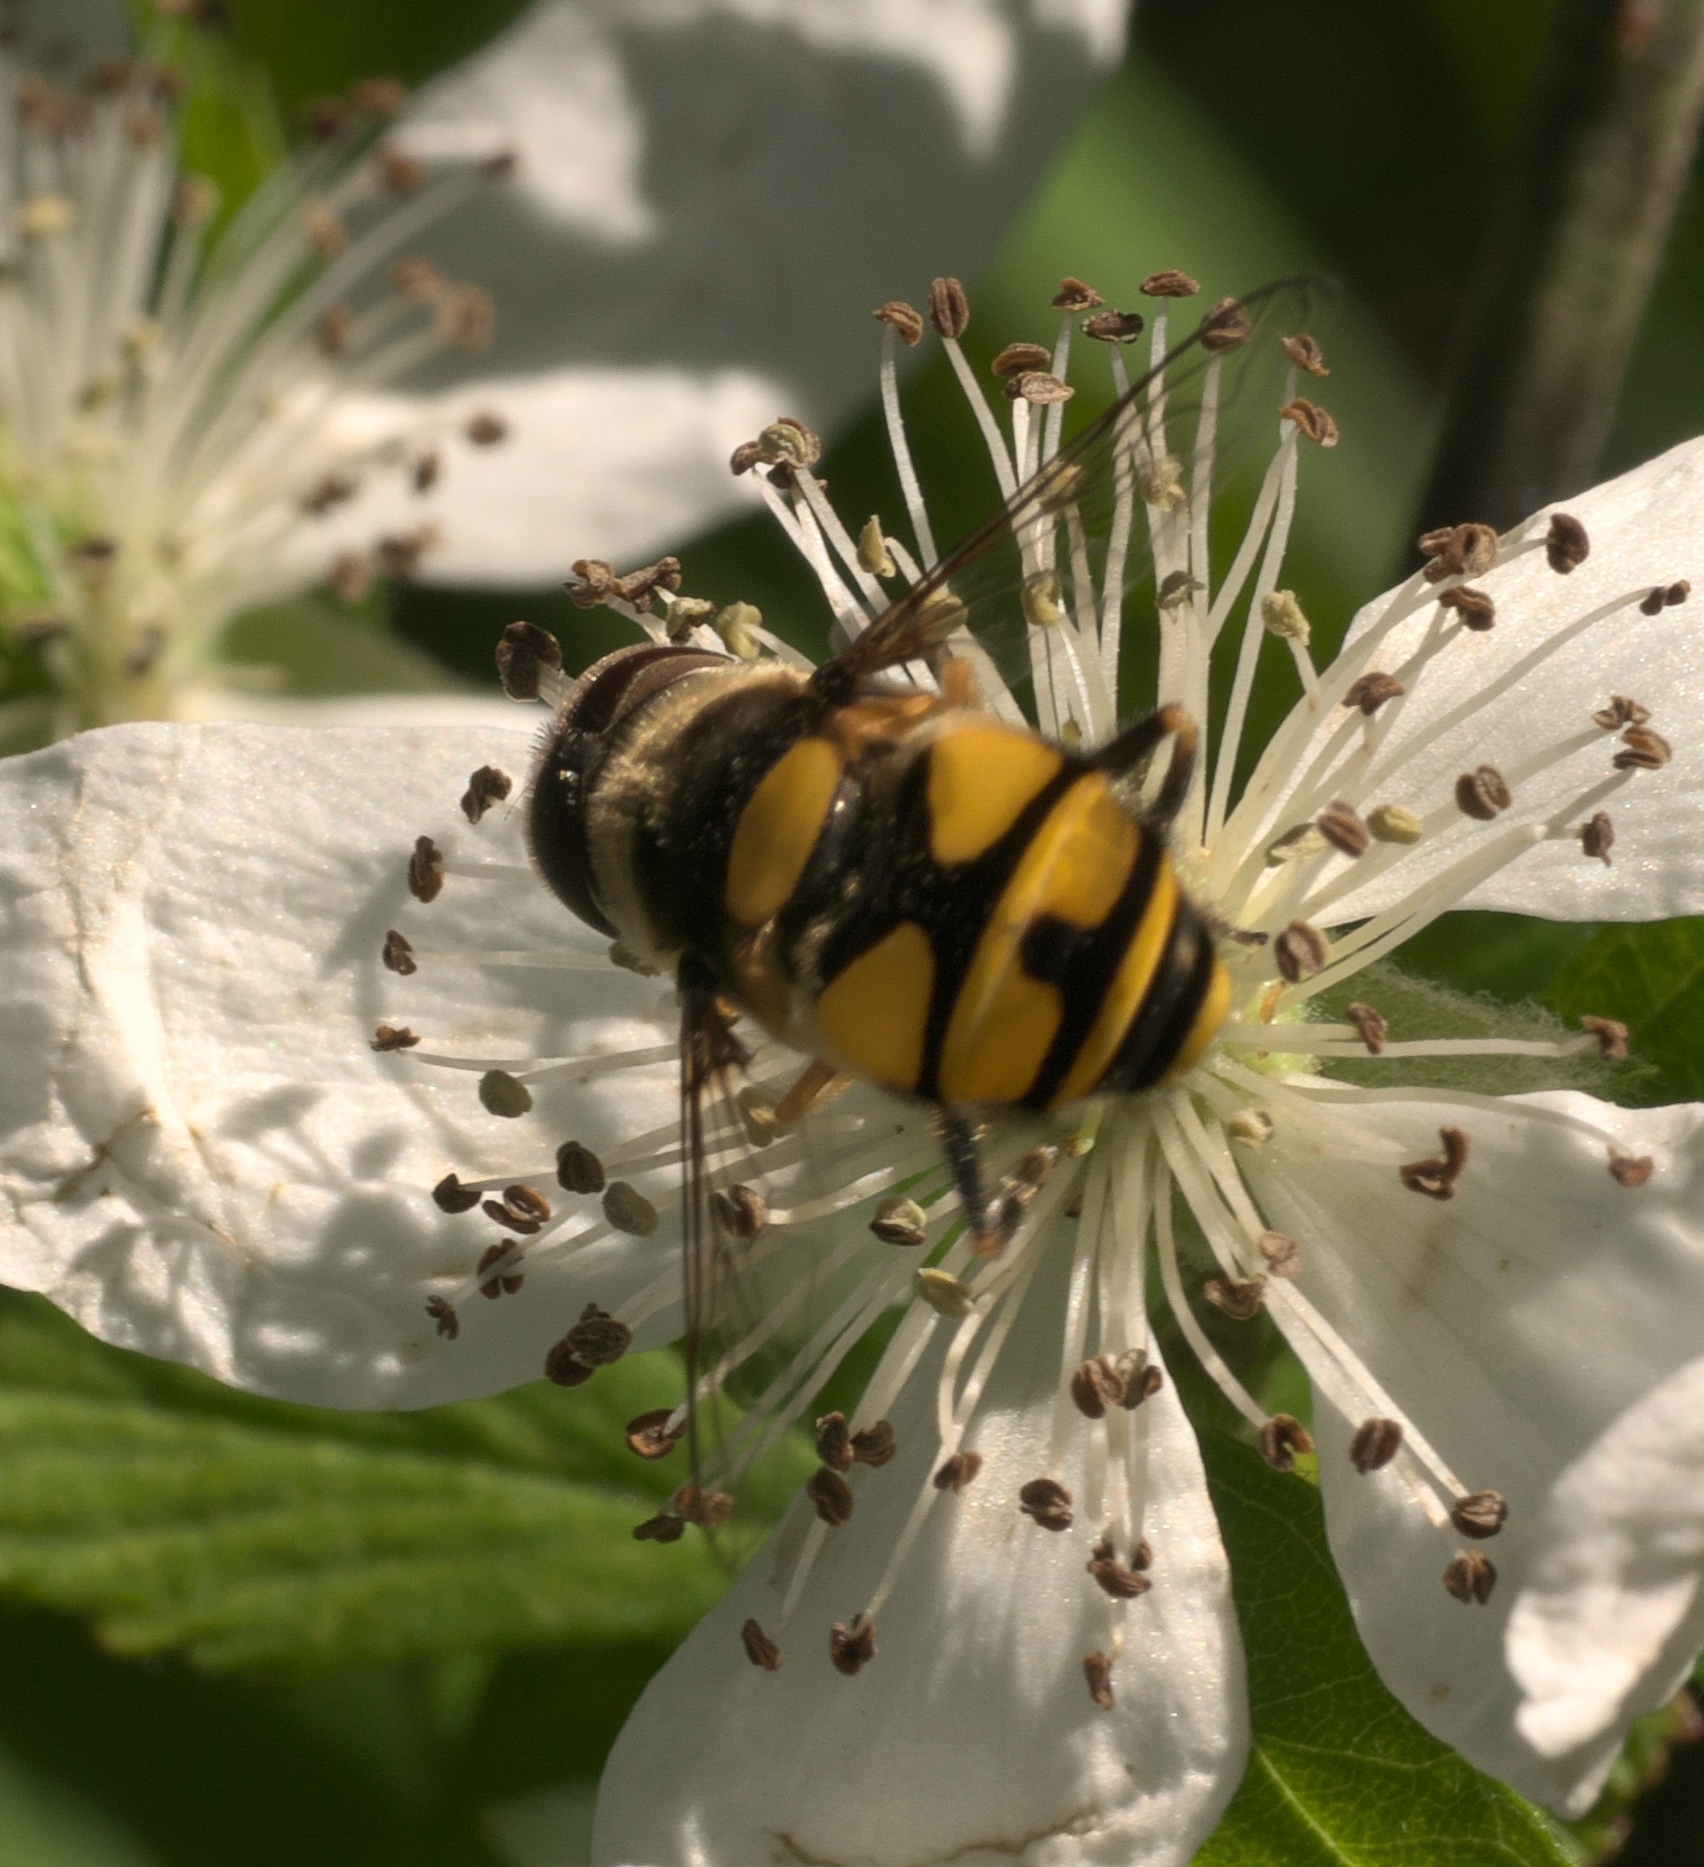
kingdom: Animalia
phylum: Arthropoda
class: Insecta
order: Diptera
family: Syrphidae
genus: Eristalis
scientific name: Eristalis transversa
